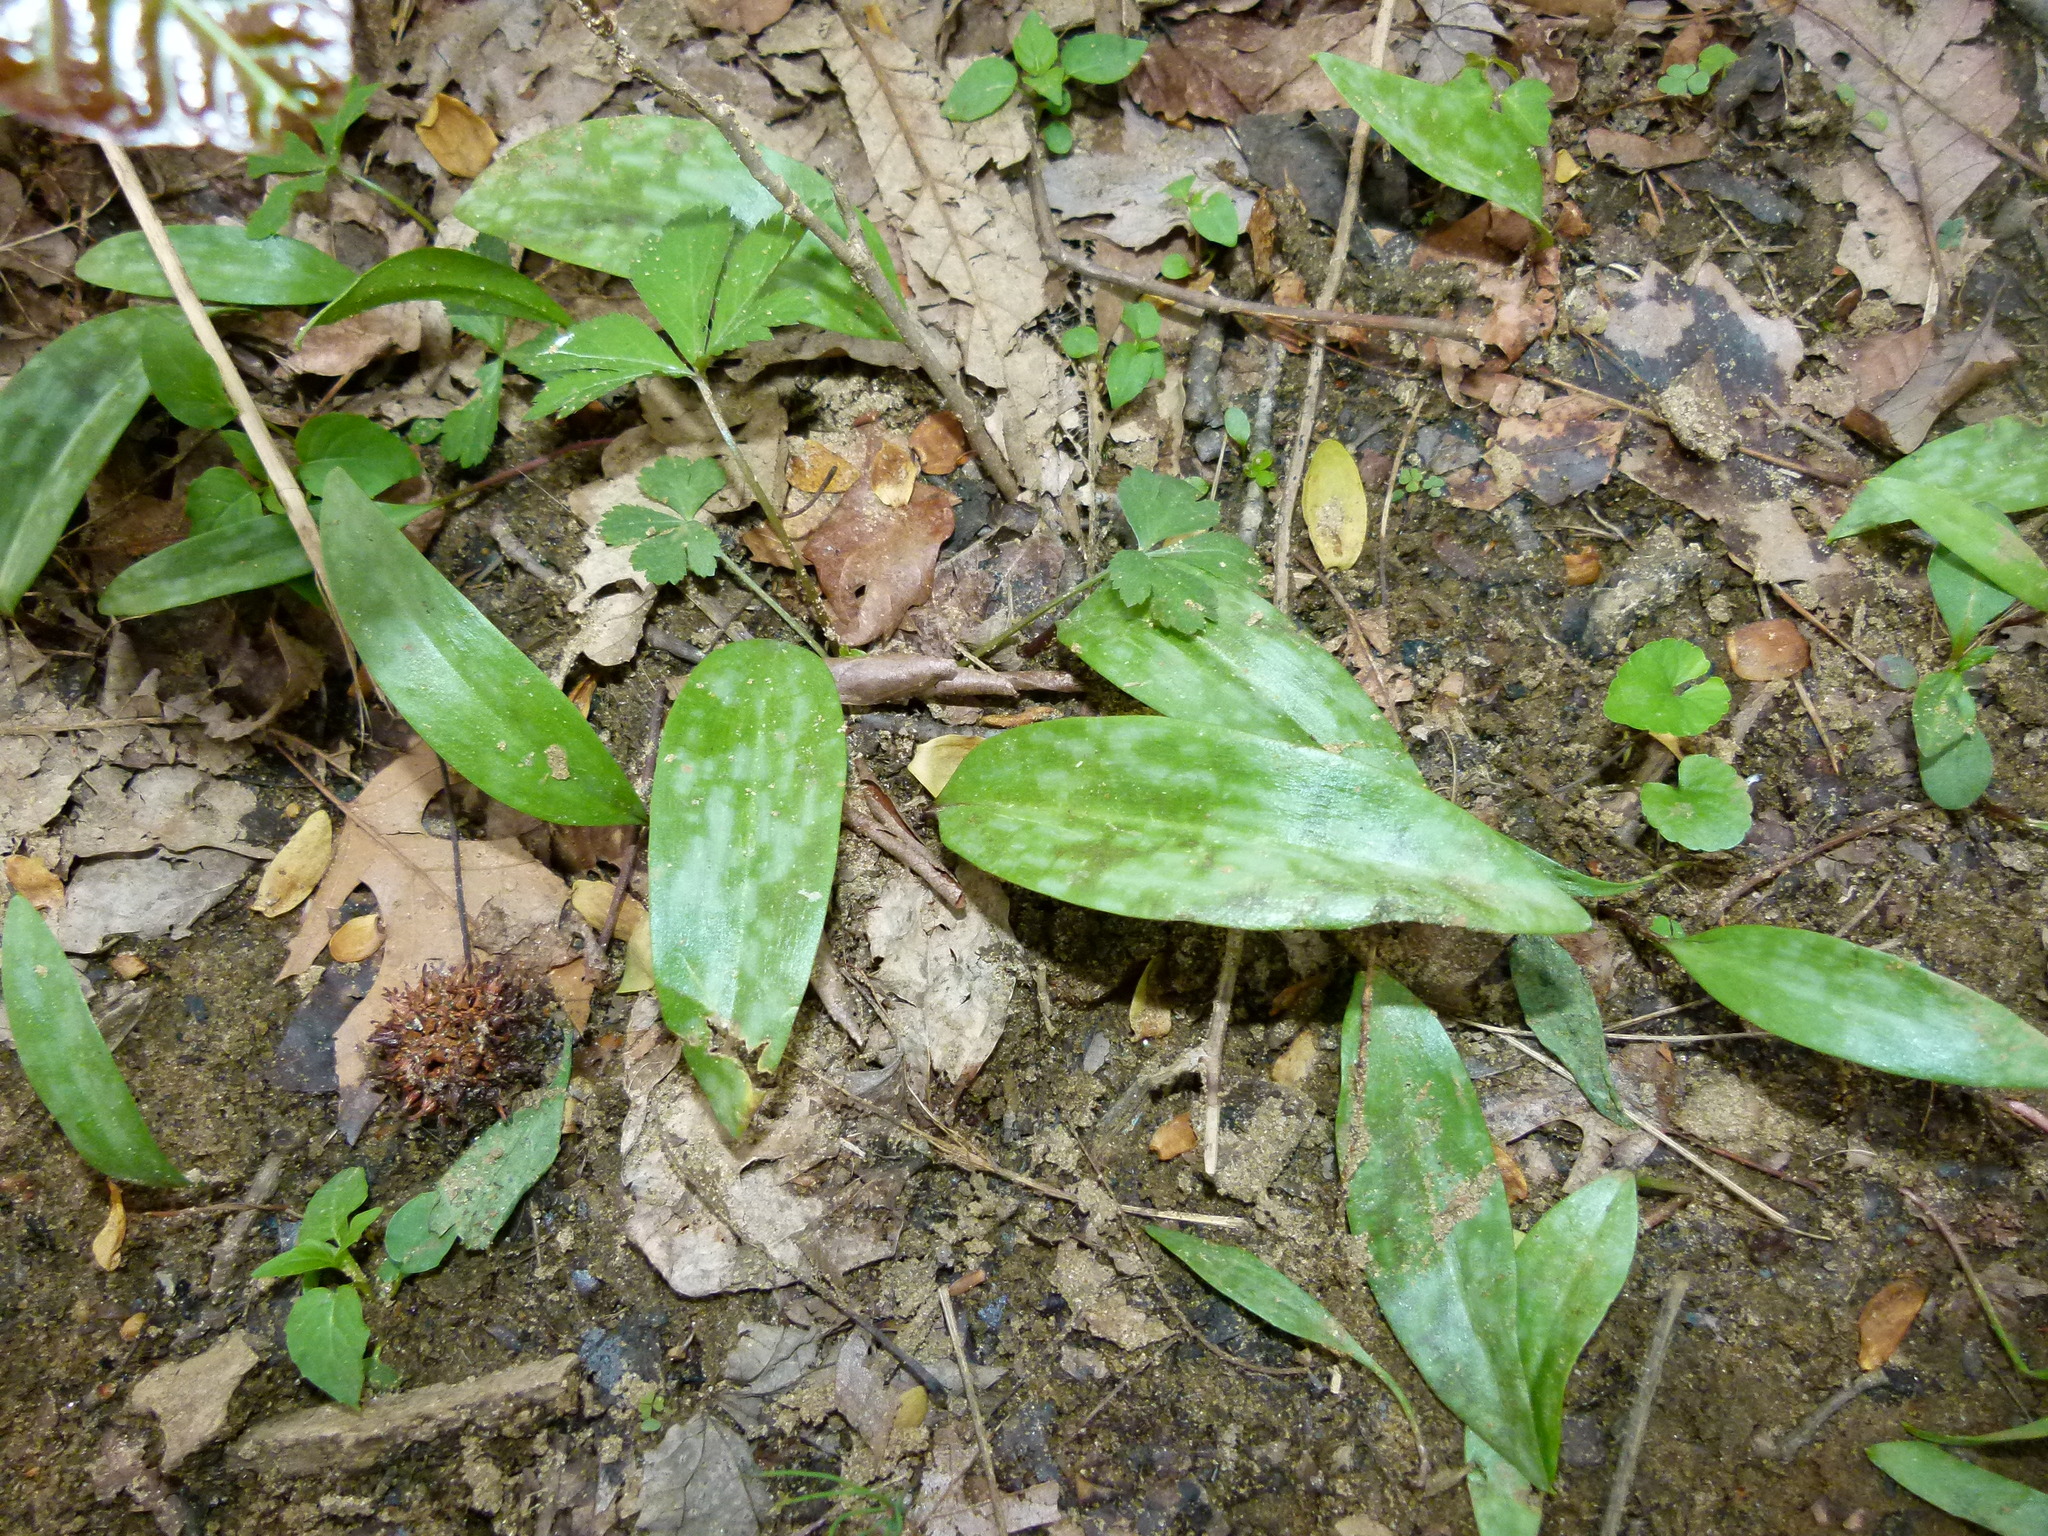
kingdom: Plantae
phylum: Tracheophyta
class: Liliopsida
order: Liliales
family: Liliaceae
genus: Erythronium
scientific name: Erythronium americanum
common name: Yellow adder's-tongue
